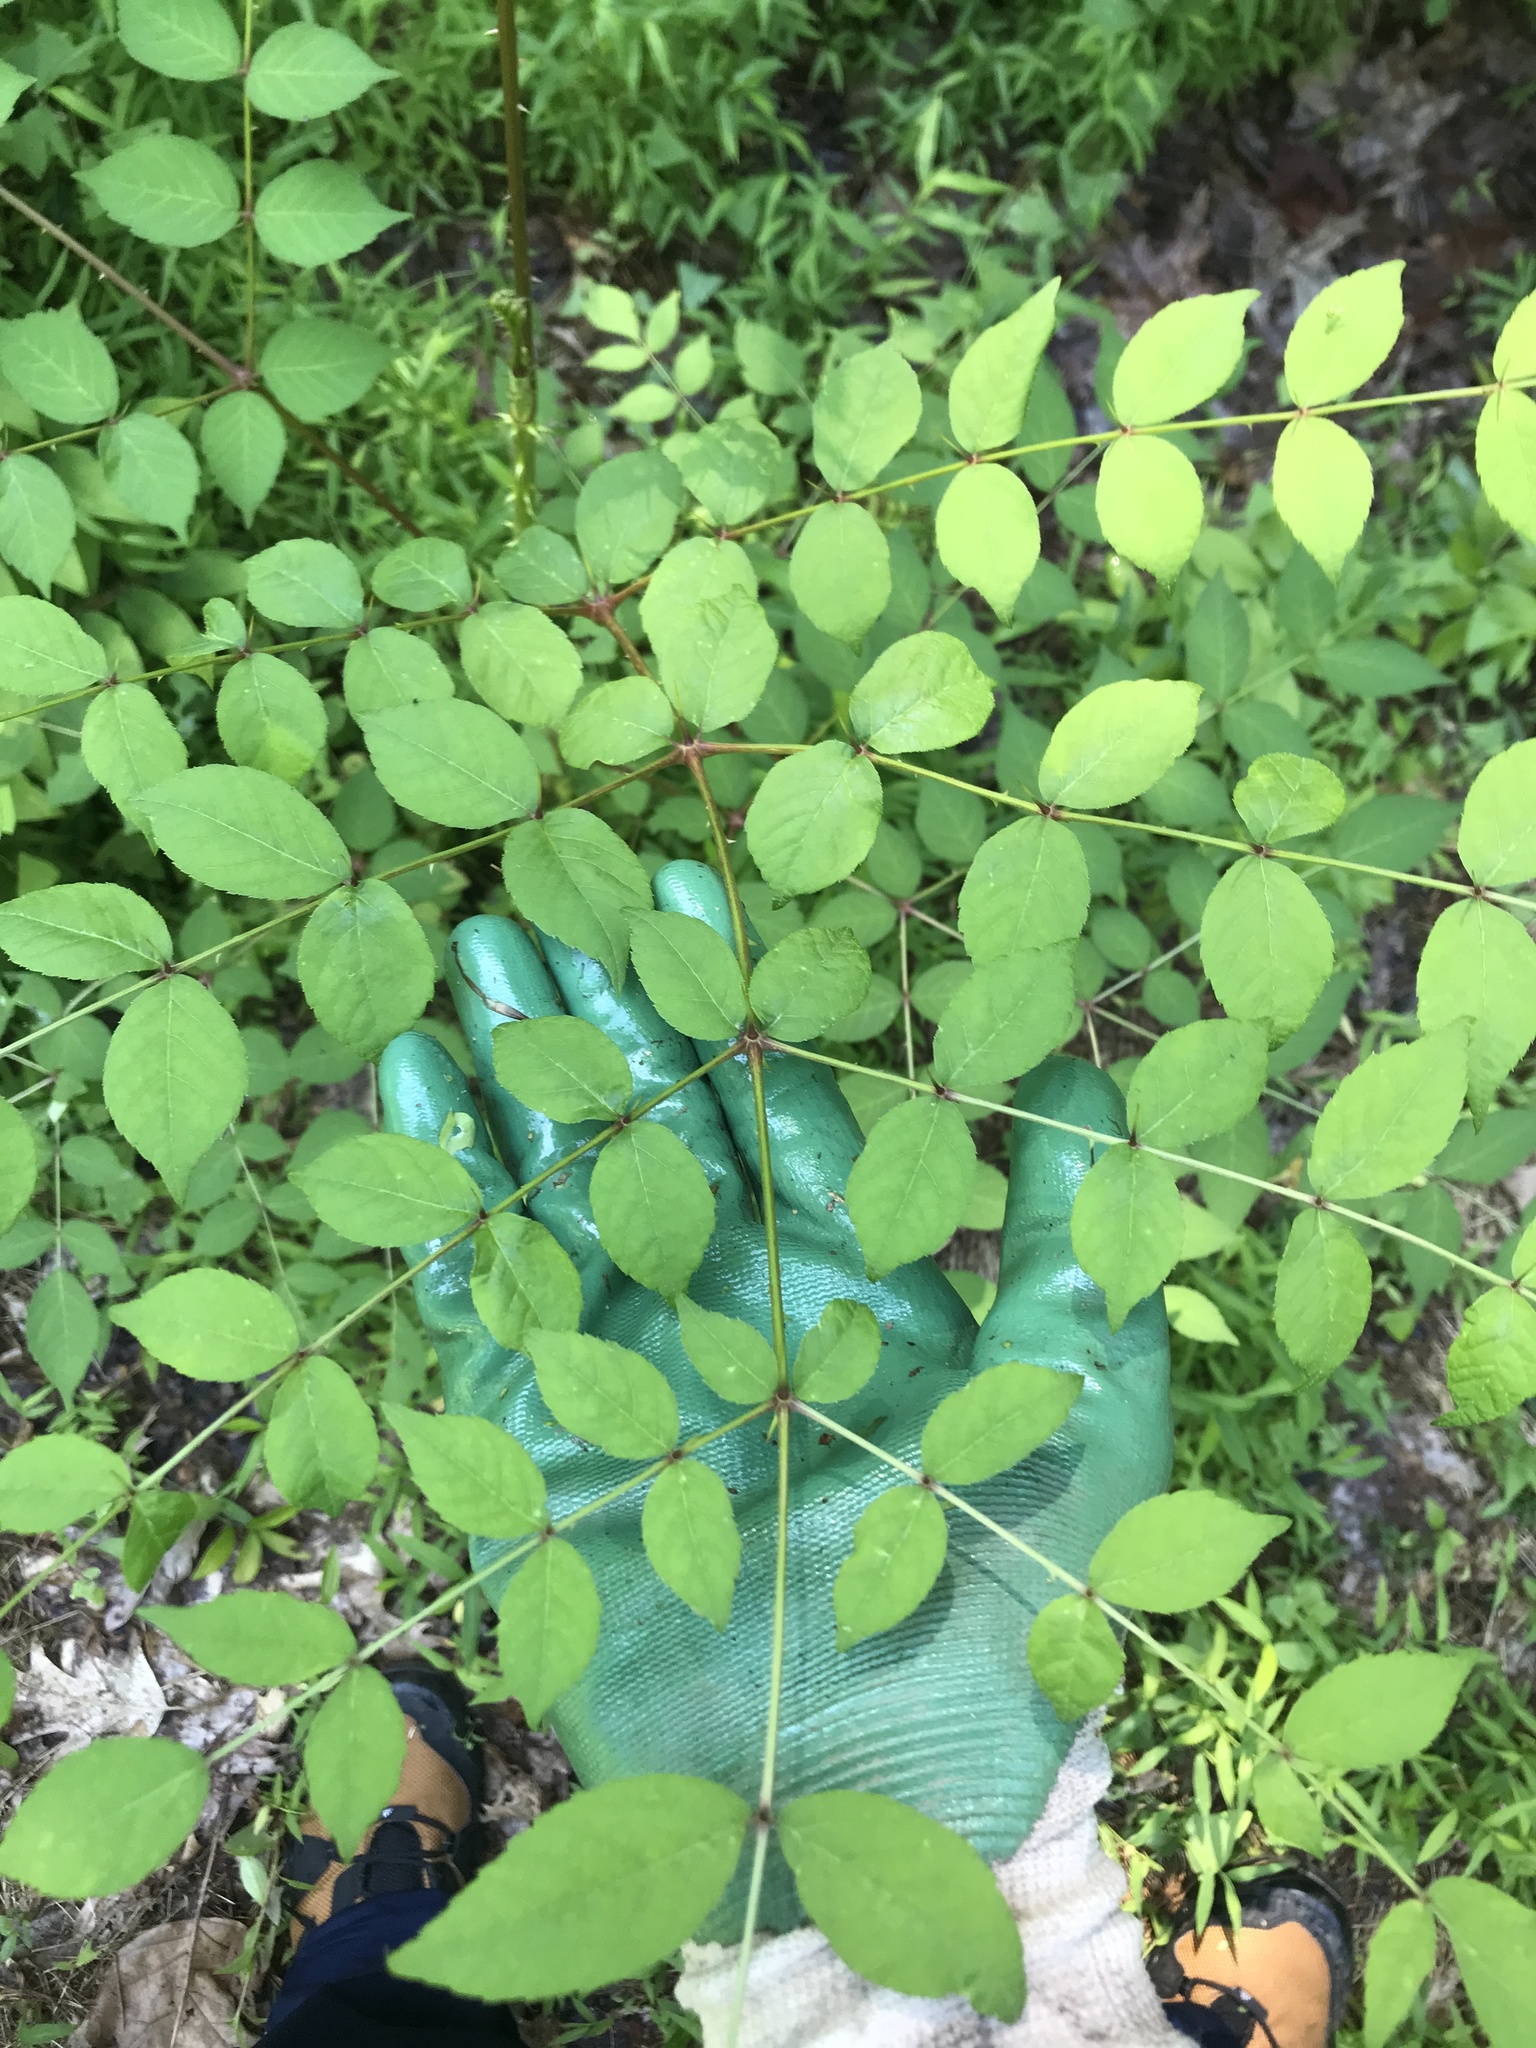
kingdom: Plantae
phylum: Tracheophyta
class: Magnoliopsida
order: Apiales
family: Araliaceae
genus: Aralia
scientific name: Aralia elata
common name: Japanese angelica-tree
